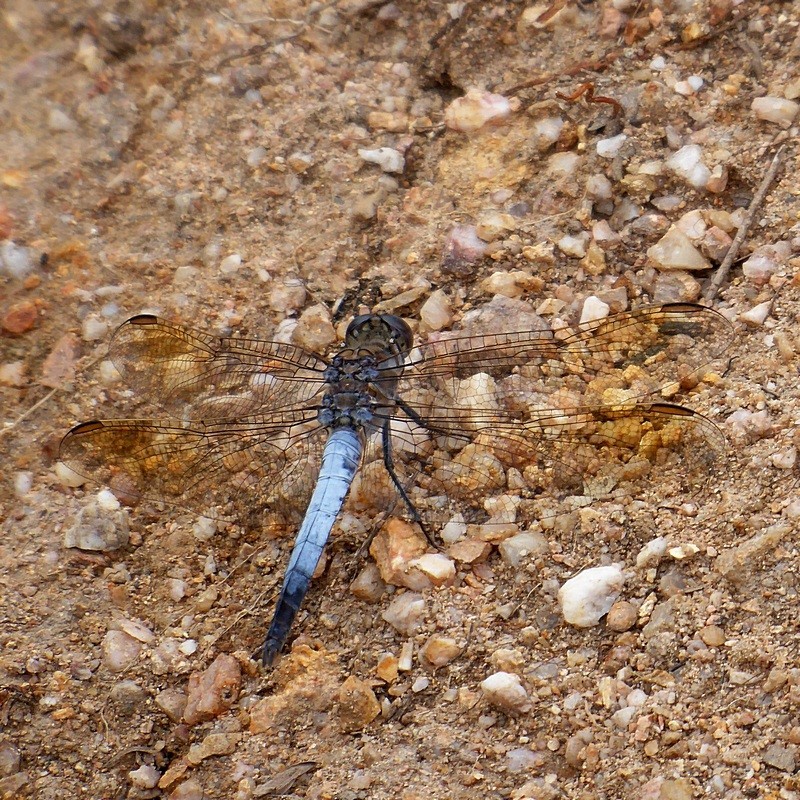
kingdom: Animalia
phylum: Arthropoda
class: Insecta
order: Odonata
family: Libellulidae
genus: Orthetrum
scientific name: Orthetrum caledonicum
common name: Blue skimmer
